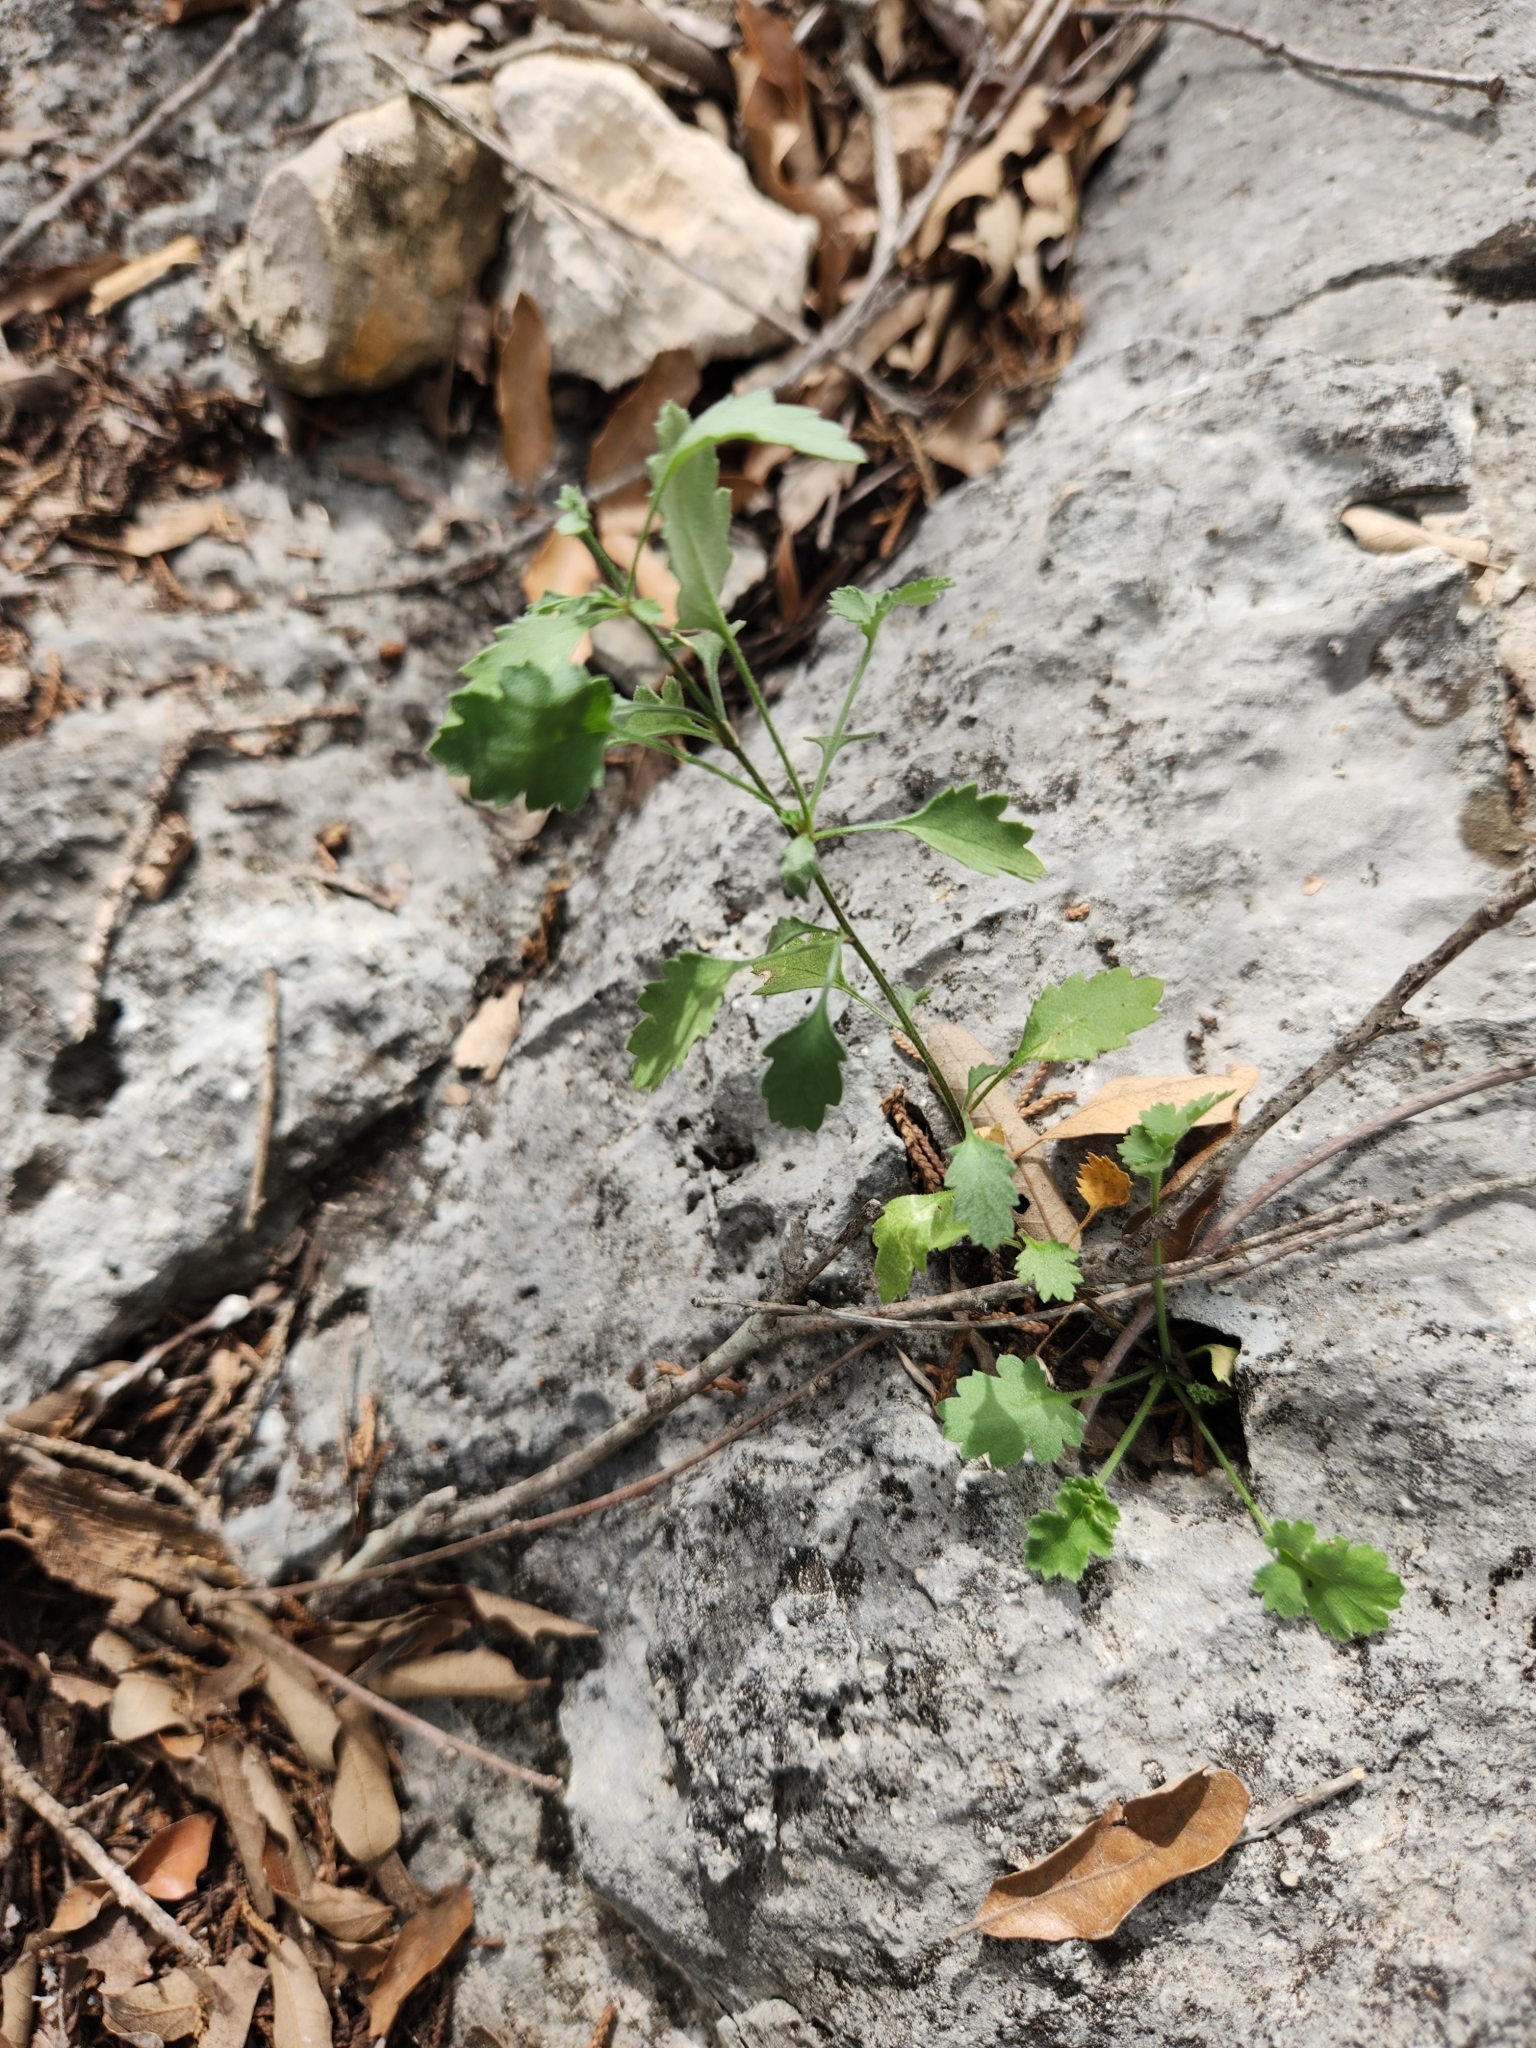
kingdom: Plantae
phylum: Tracheophyta
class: Magnoliopsida
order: Ericales
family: Polemoniaceae
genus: Giliastrum
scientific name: Giliastrum incisum
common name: Splitleaf gilia
